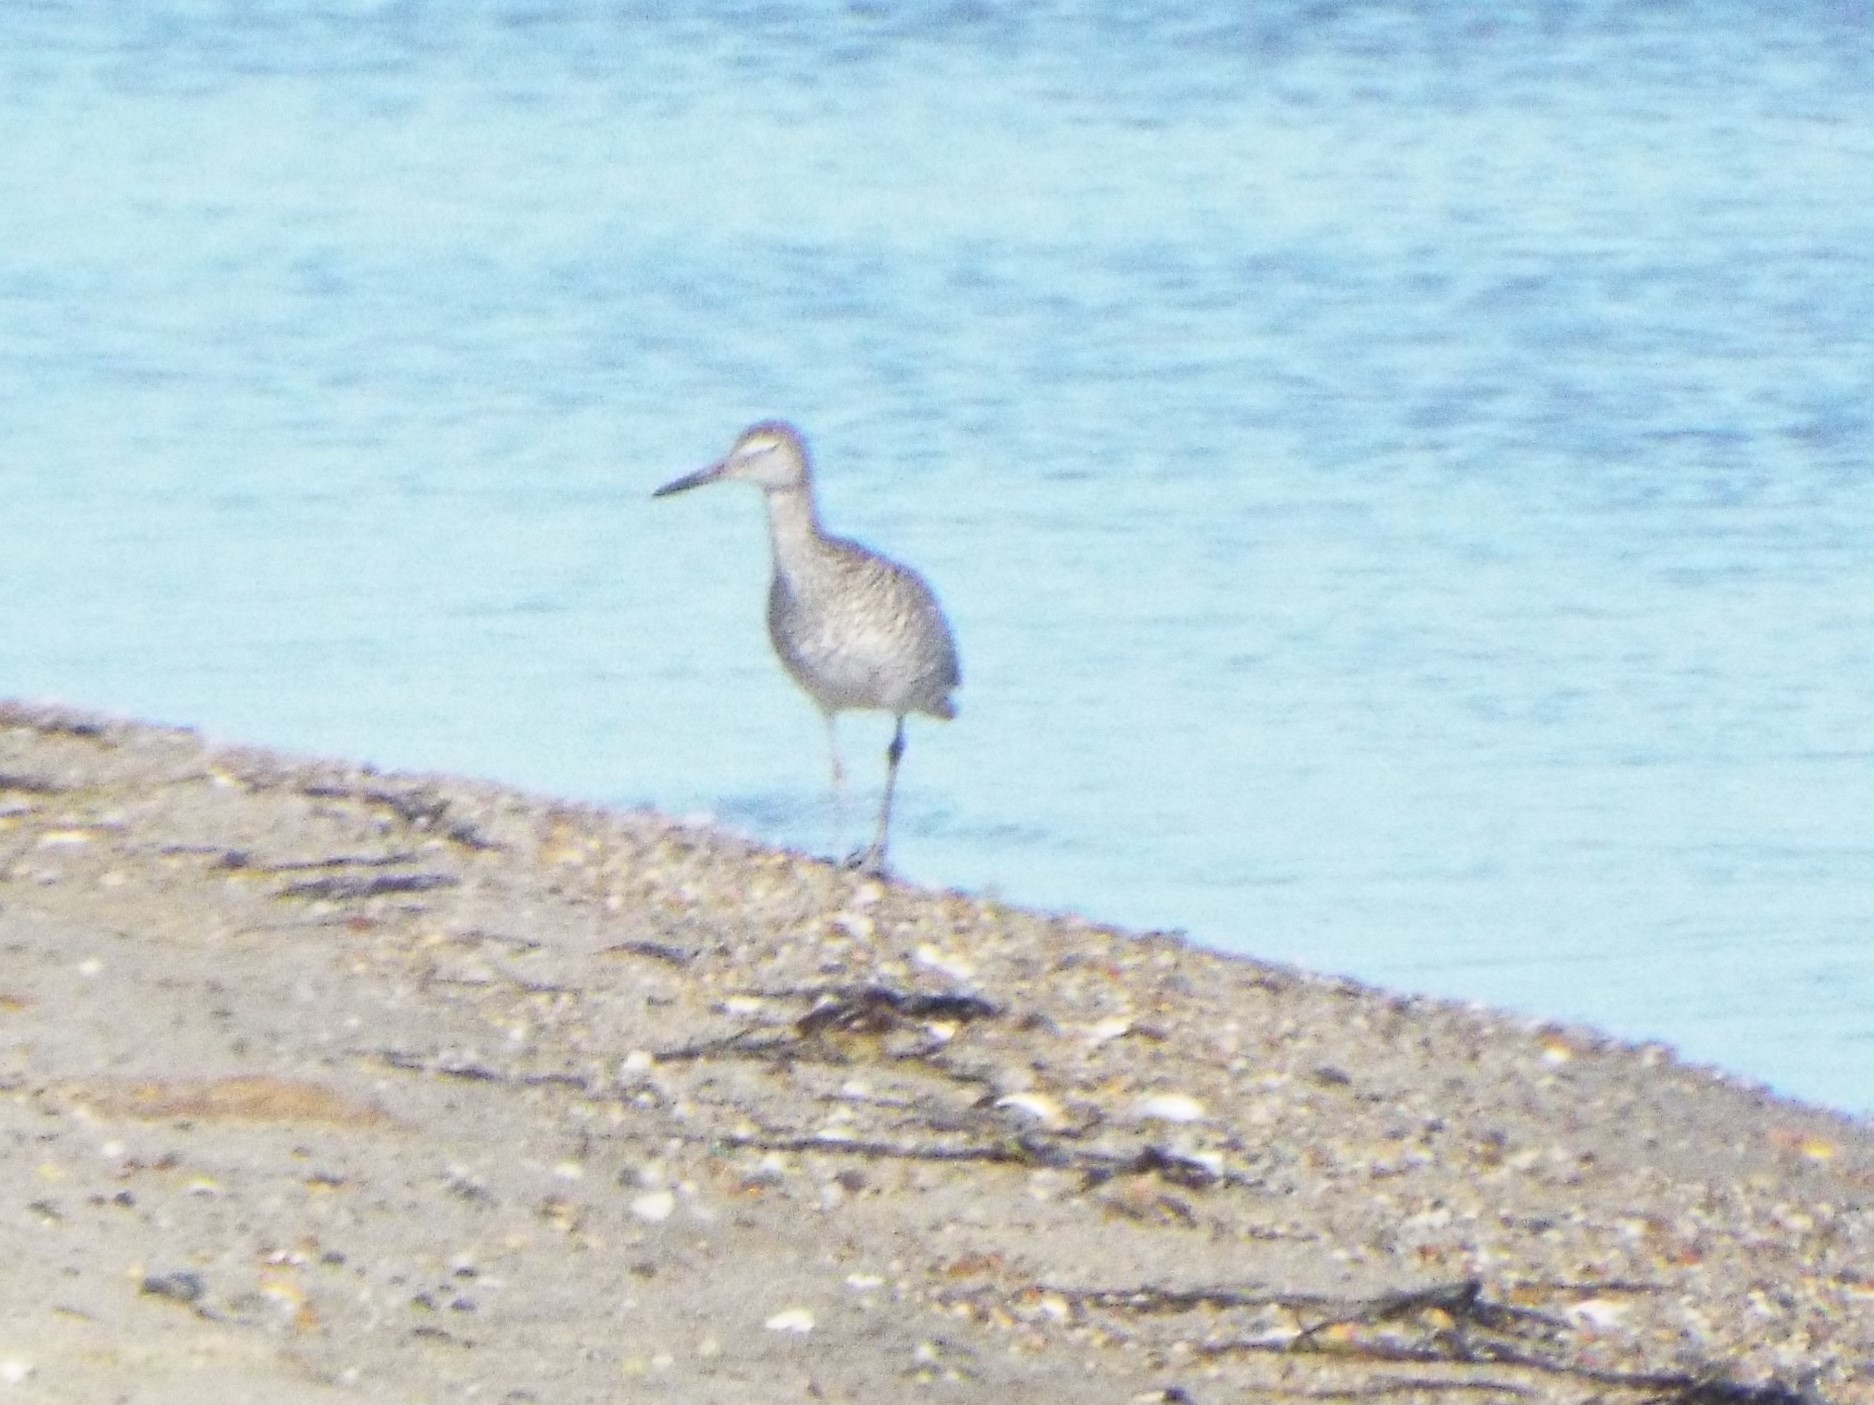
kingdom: Animalia
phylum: Chordata
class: Aves
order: Charadriiformes
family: Scolopacidae
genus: Tringa
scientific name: Tringa semipalmata
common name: Willet
